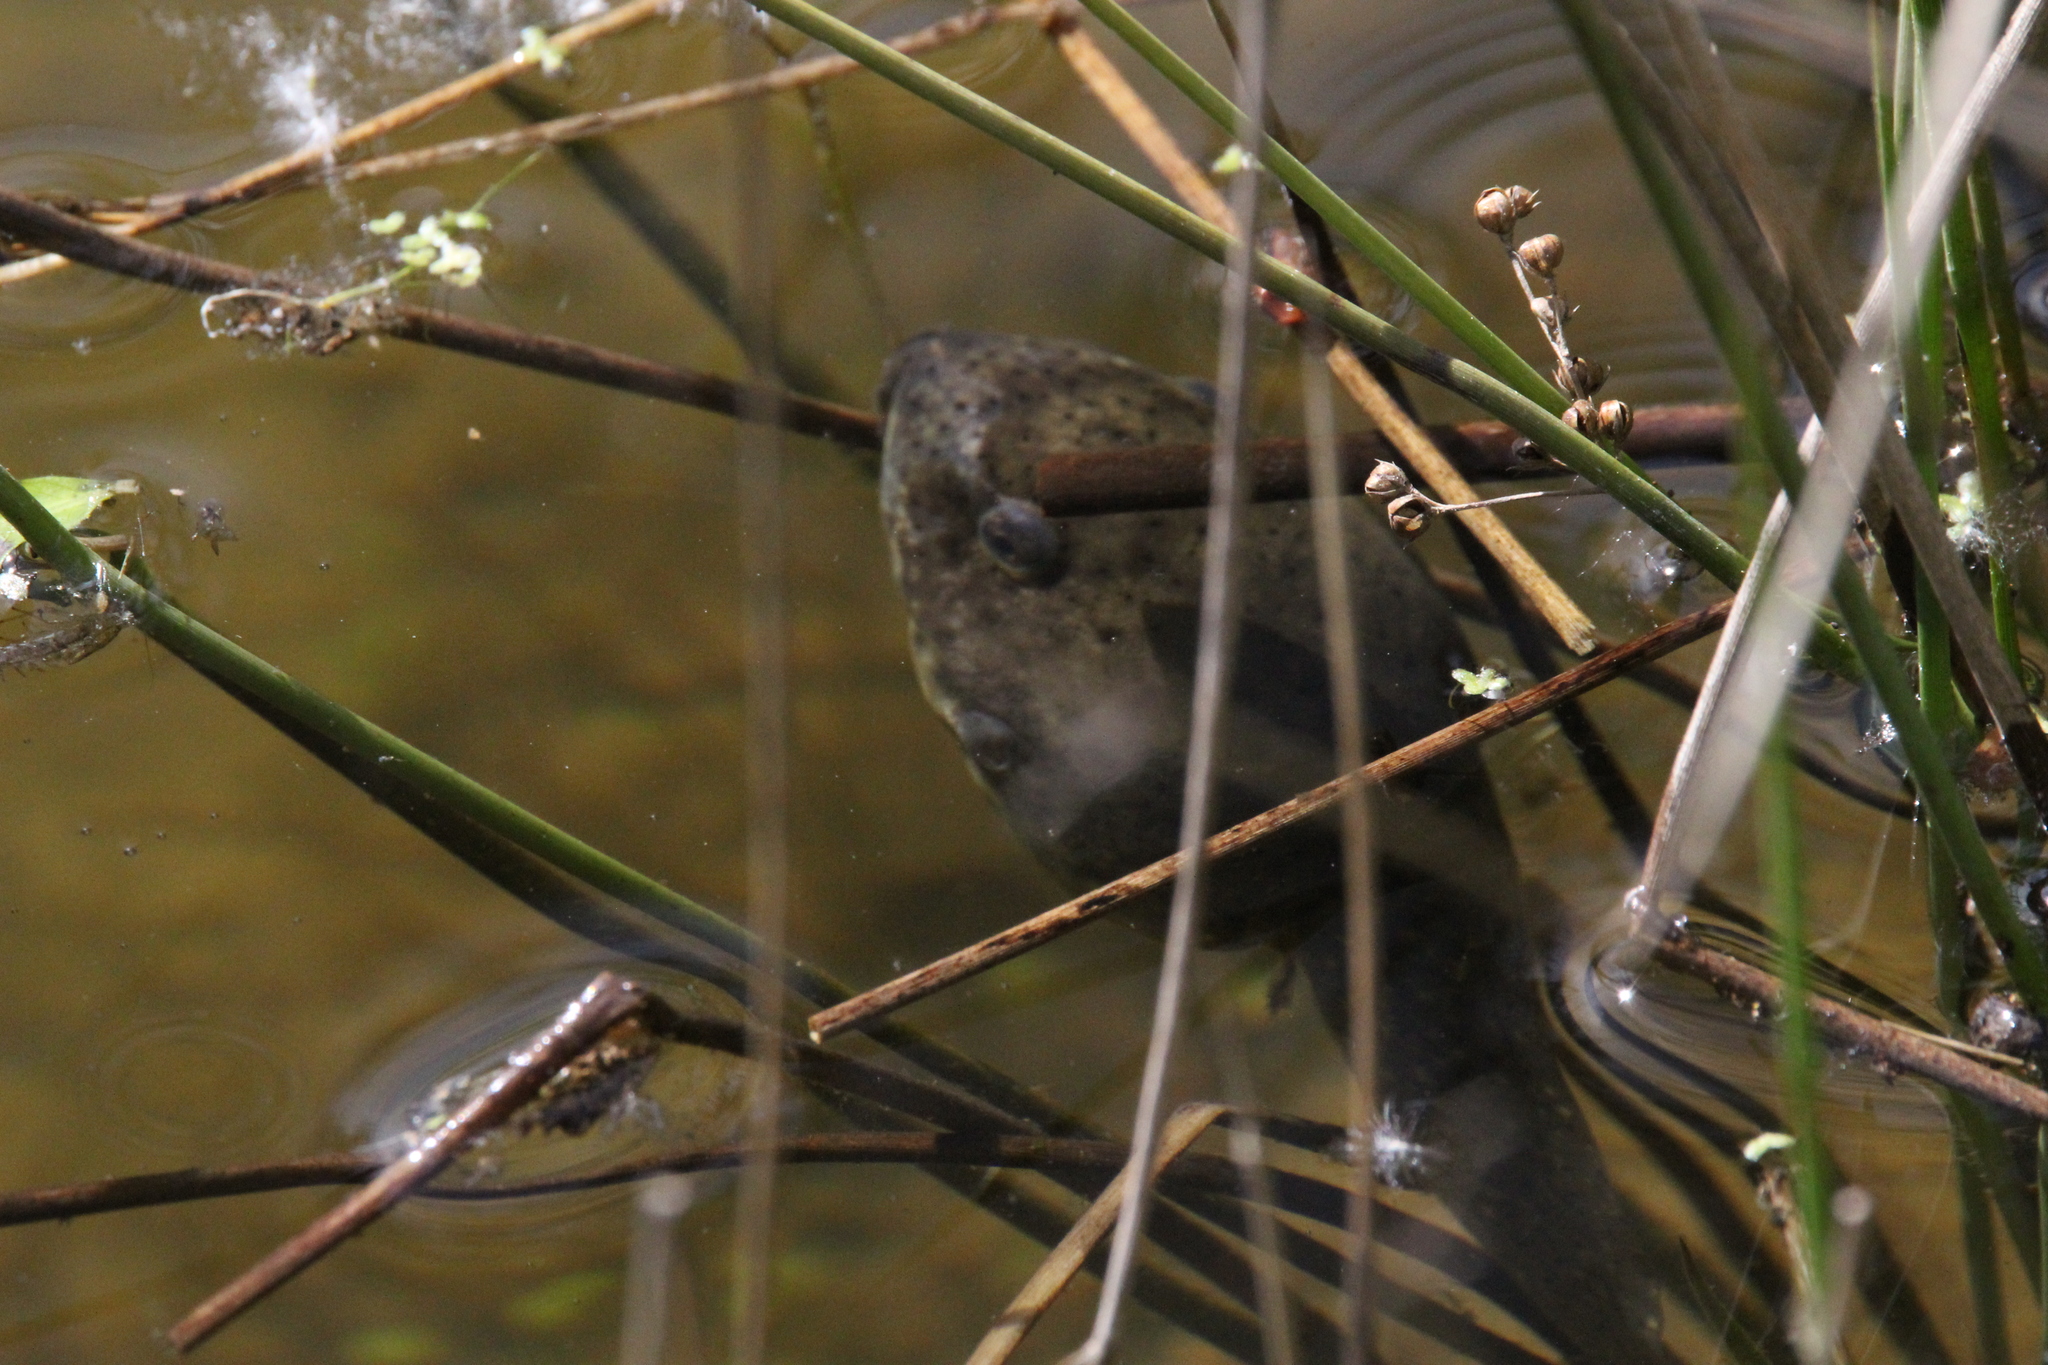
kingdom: Animalia
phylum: Chordata
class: Amphibia
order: Anura
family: Ranidae
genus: Lithobates
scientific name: Lithobates catesbeianus
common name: American bullfrog
